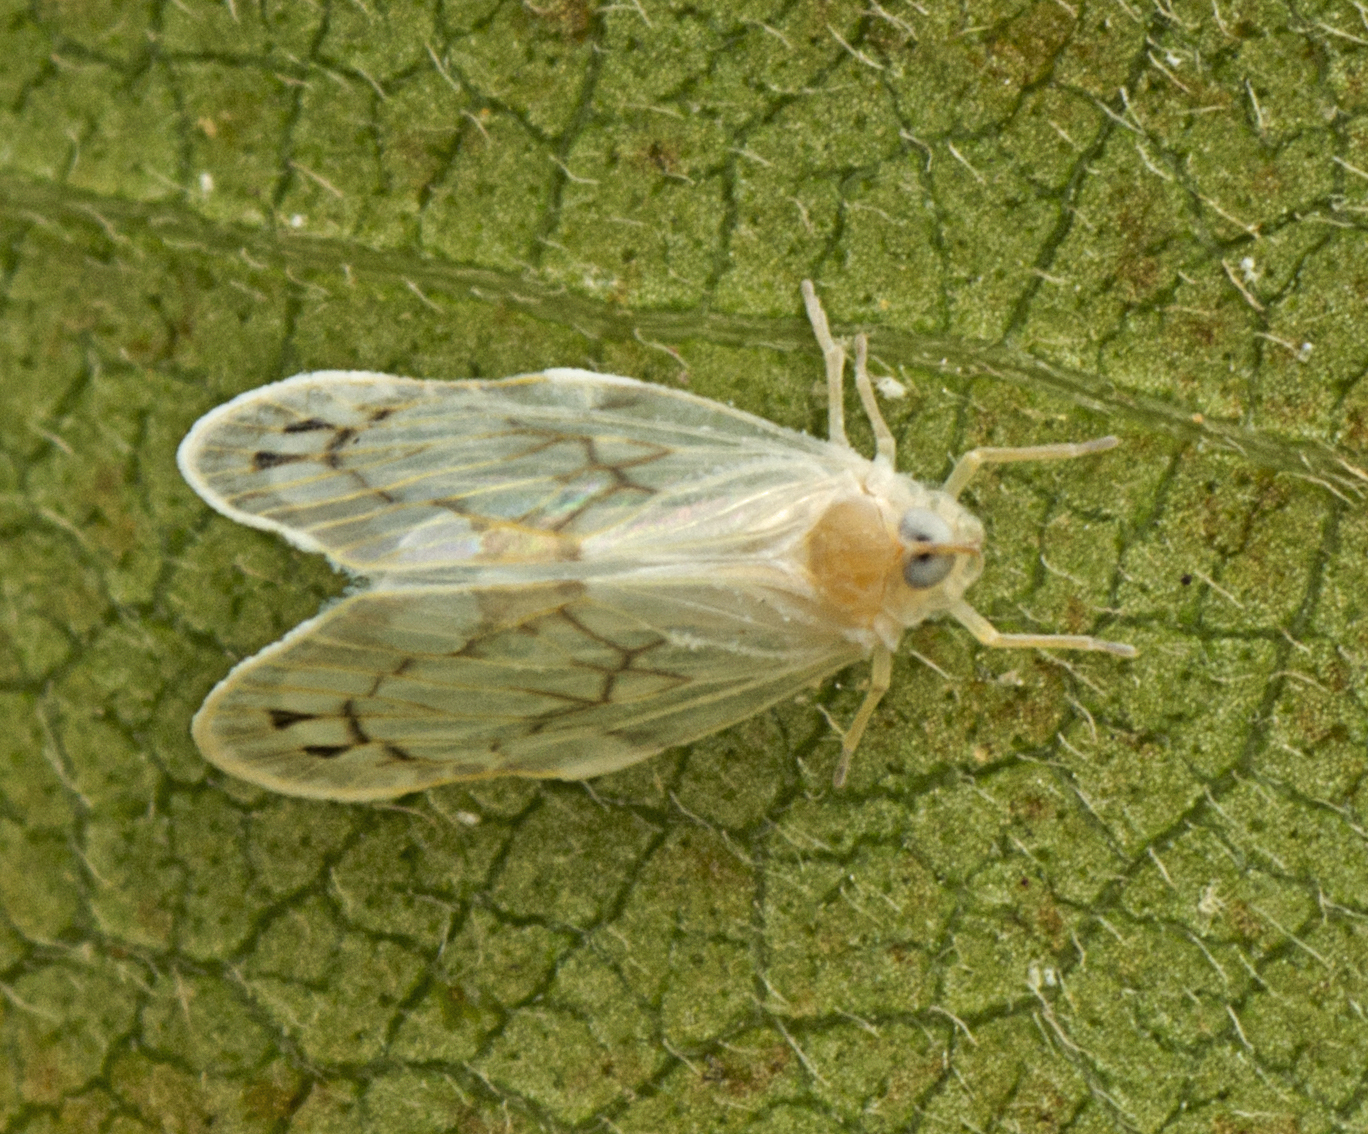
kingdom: Animalia
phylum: Arthropoda
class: Insecta
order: Hemiptera
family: Derbidae
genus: Levu
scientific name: Levu vitiensis
